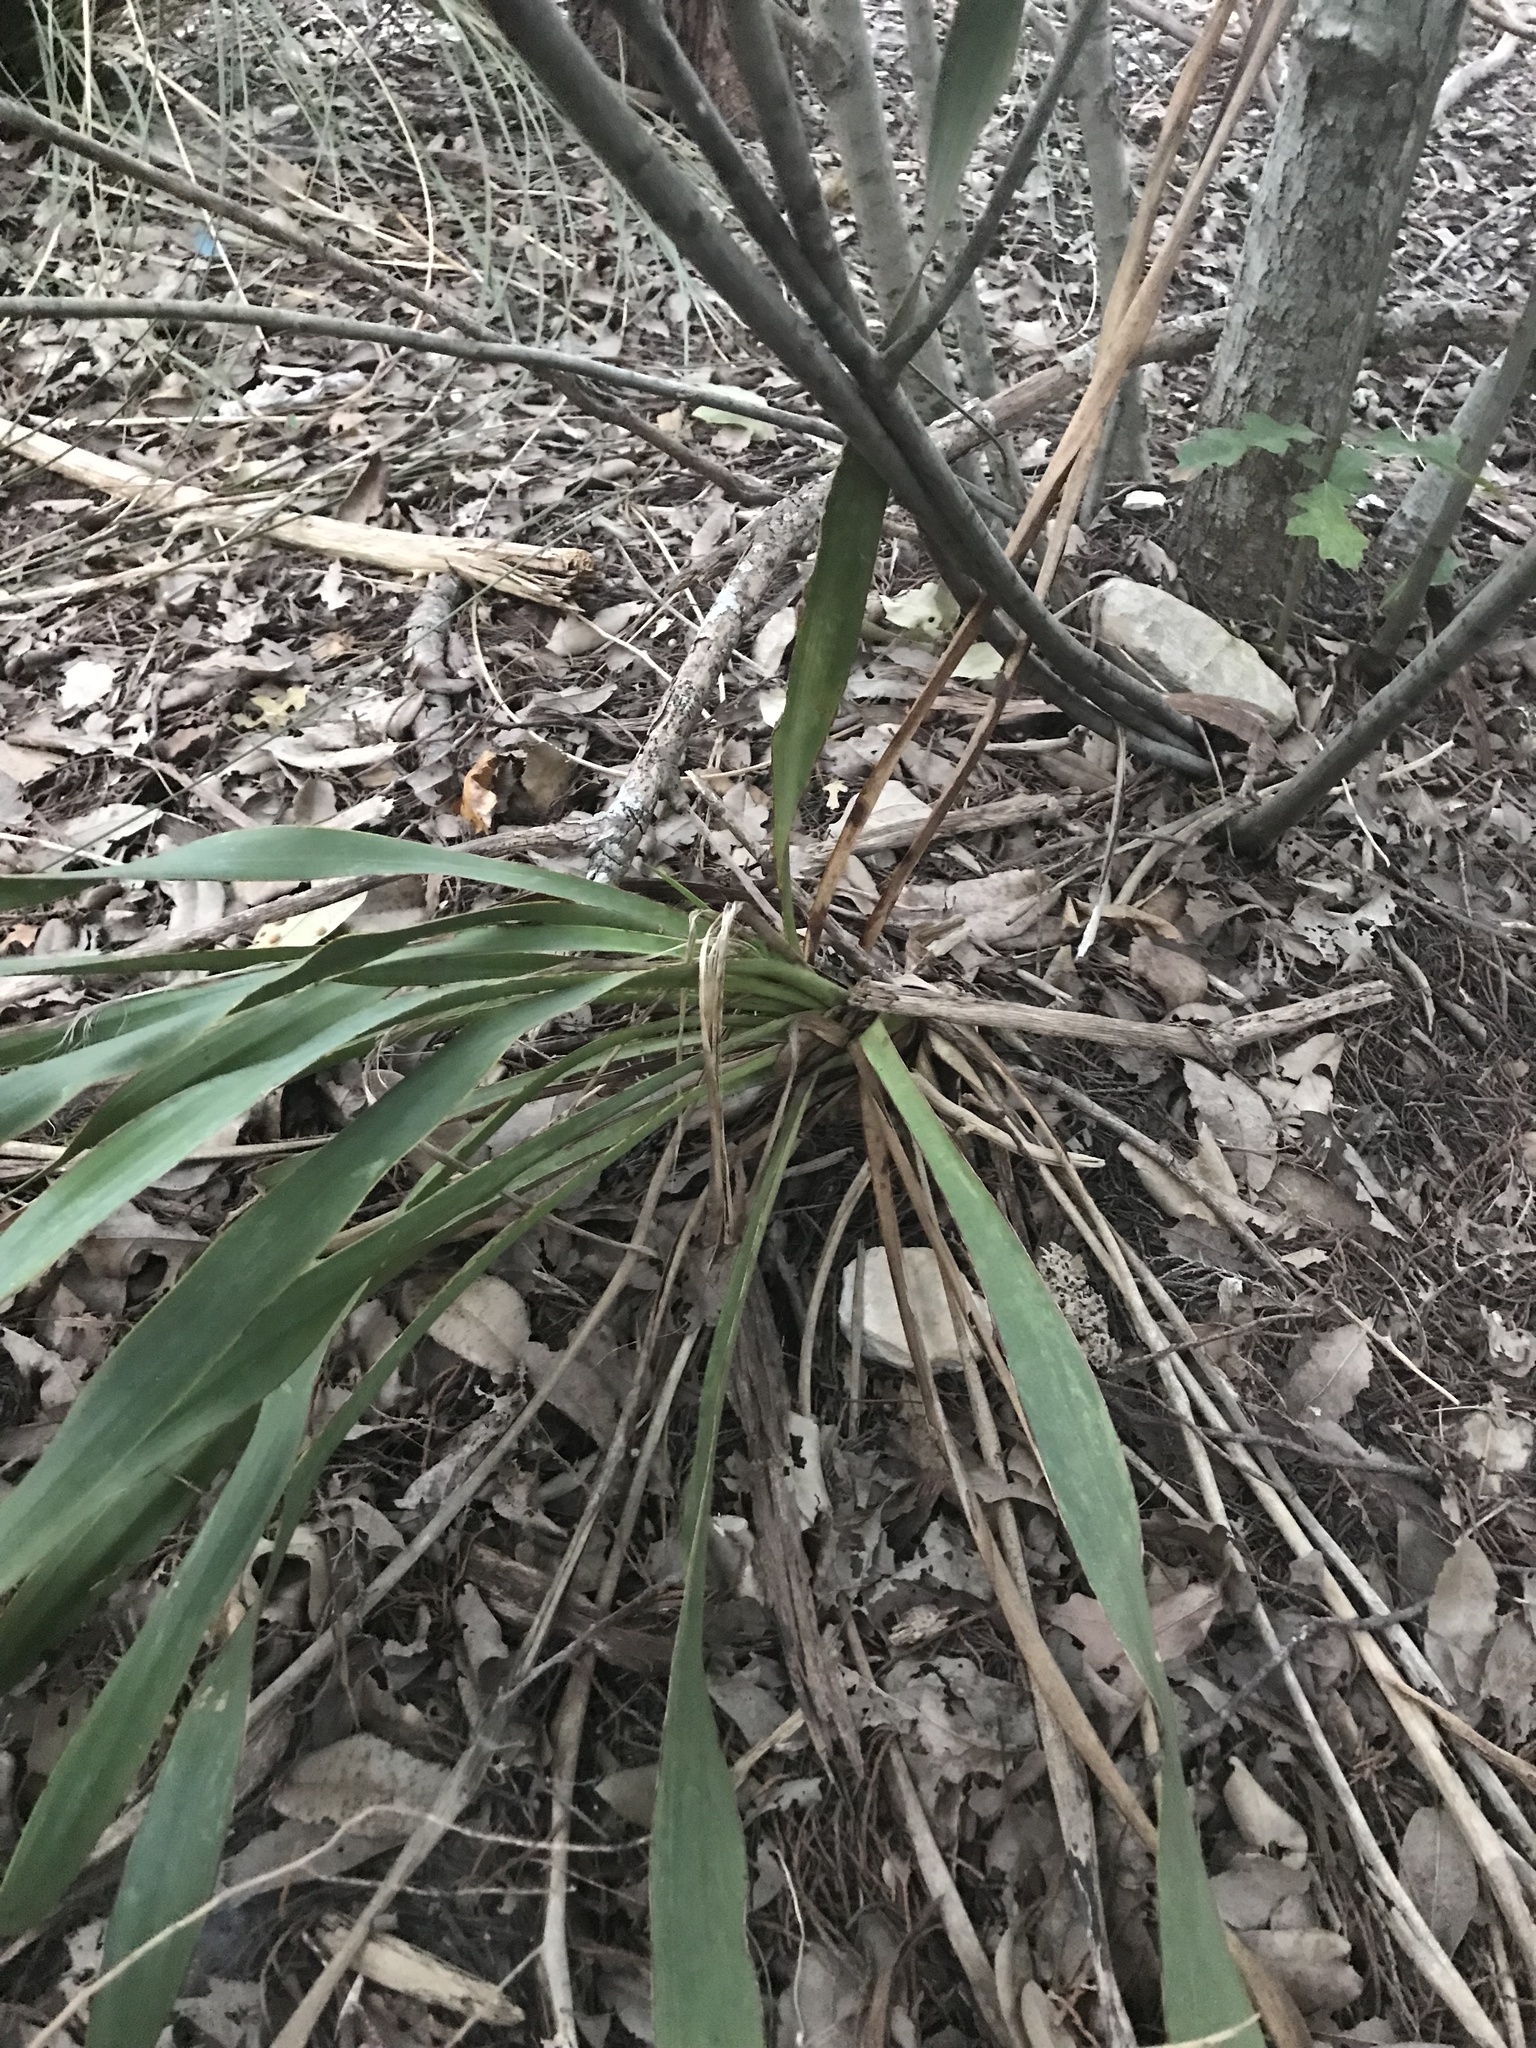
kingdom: Plantae
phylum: Tracheophyta
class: Liliopsida
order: Asparagales
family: Asparagaceae
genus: Yucca
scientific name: Yucca rupicola
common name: Twisted-leaf spanish-dagger
